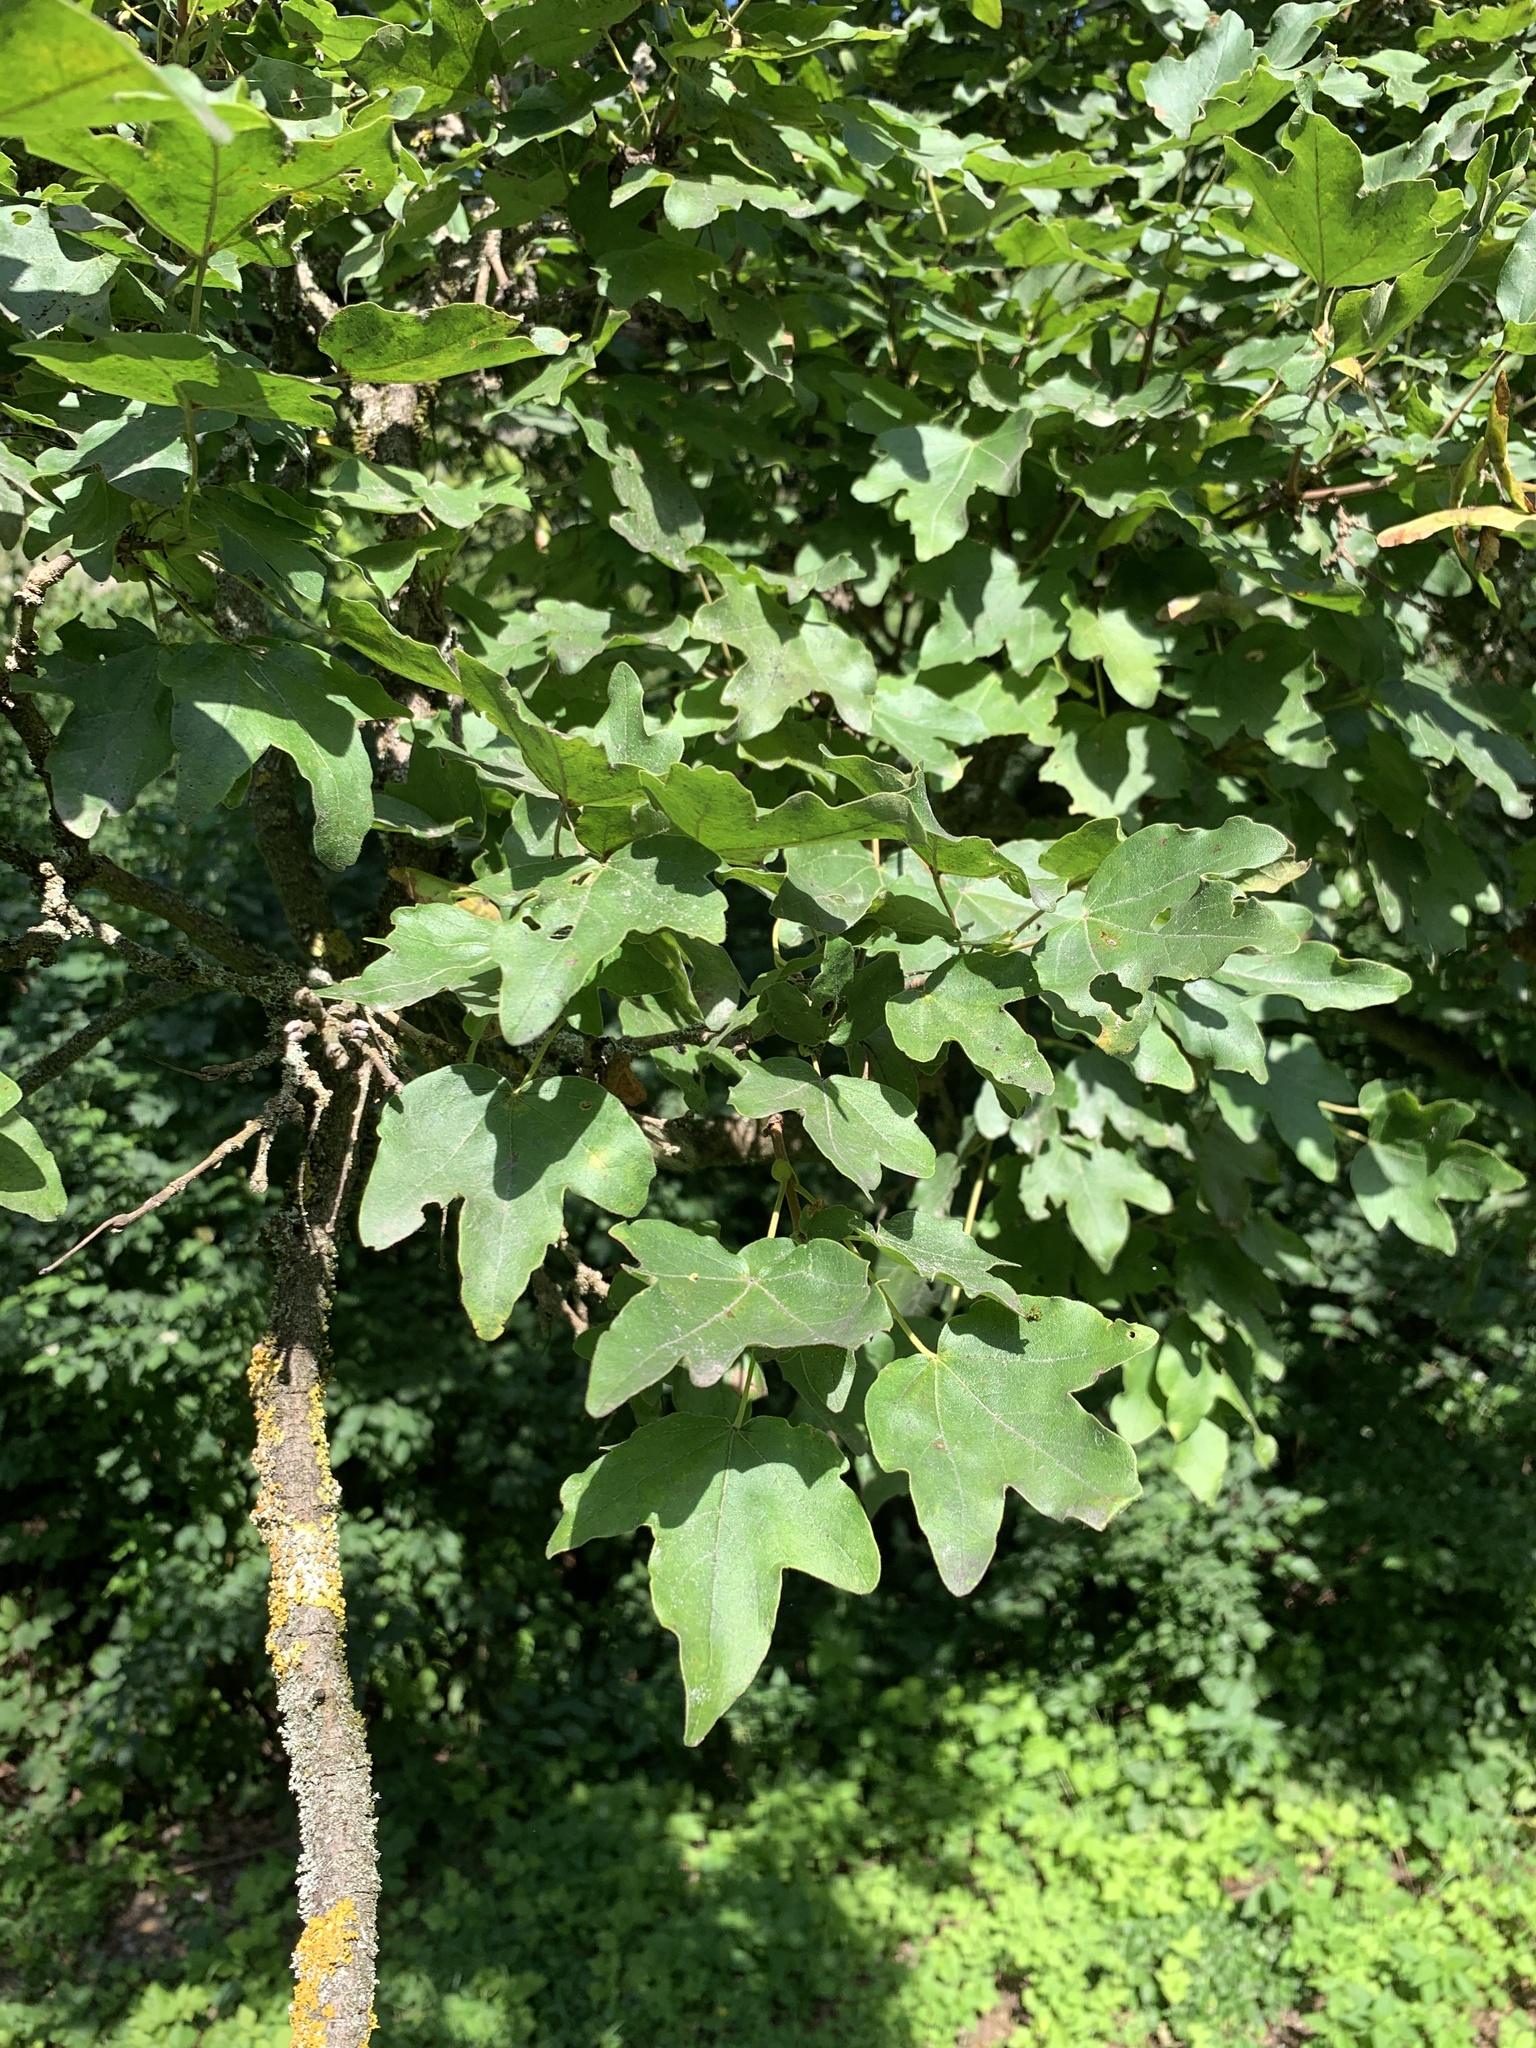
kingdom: Plantae
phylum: Tracheophyta
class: Magnoliopsida
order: Sapindales
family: Sapindaceae
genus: Acer
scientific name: Acer campestre
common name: Field maple
